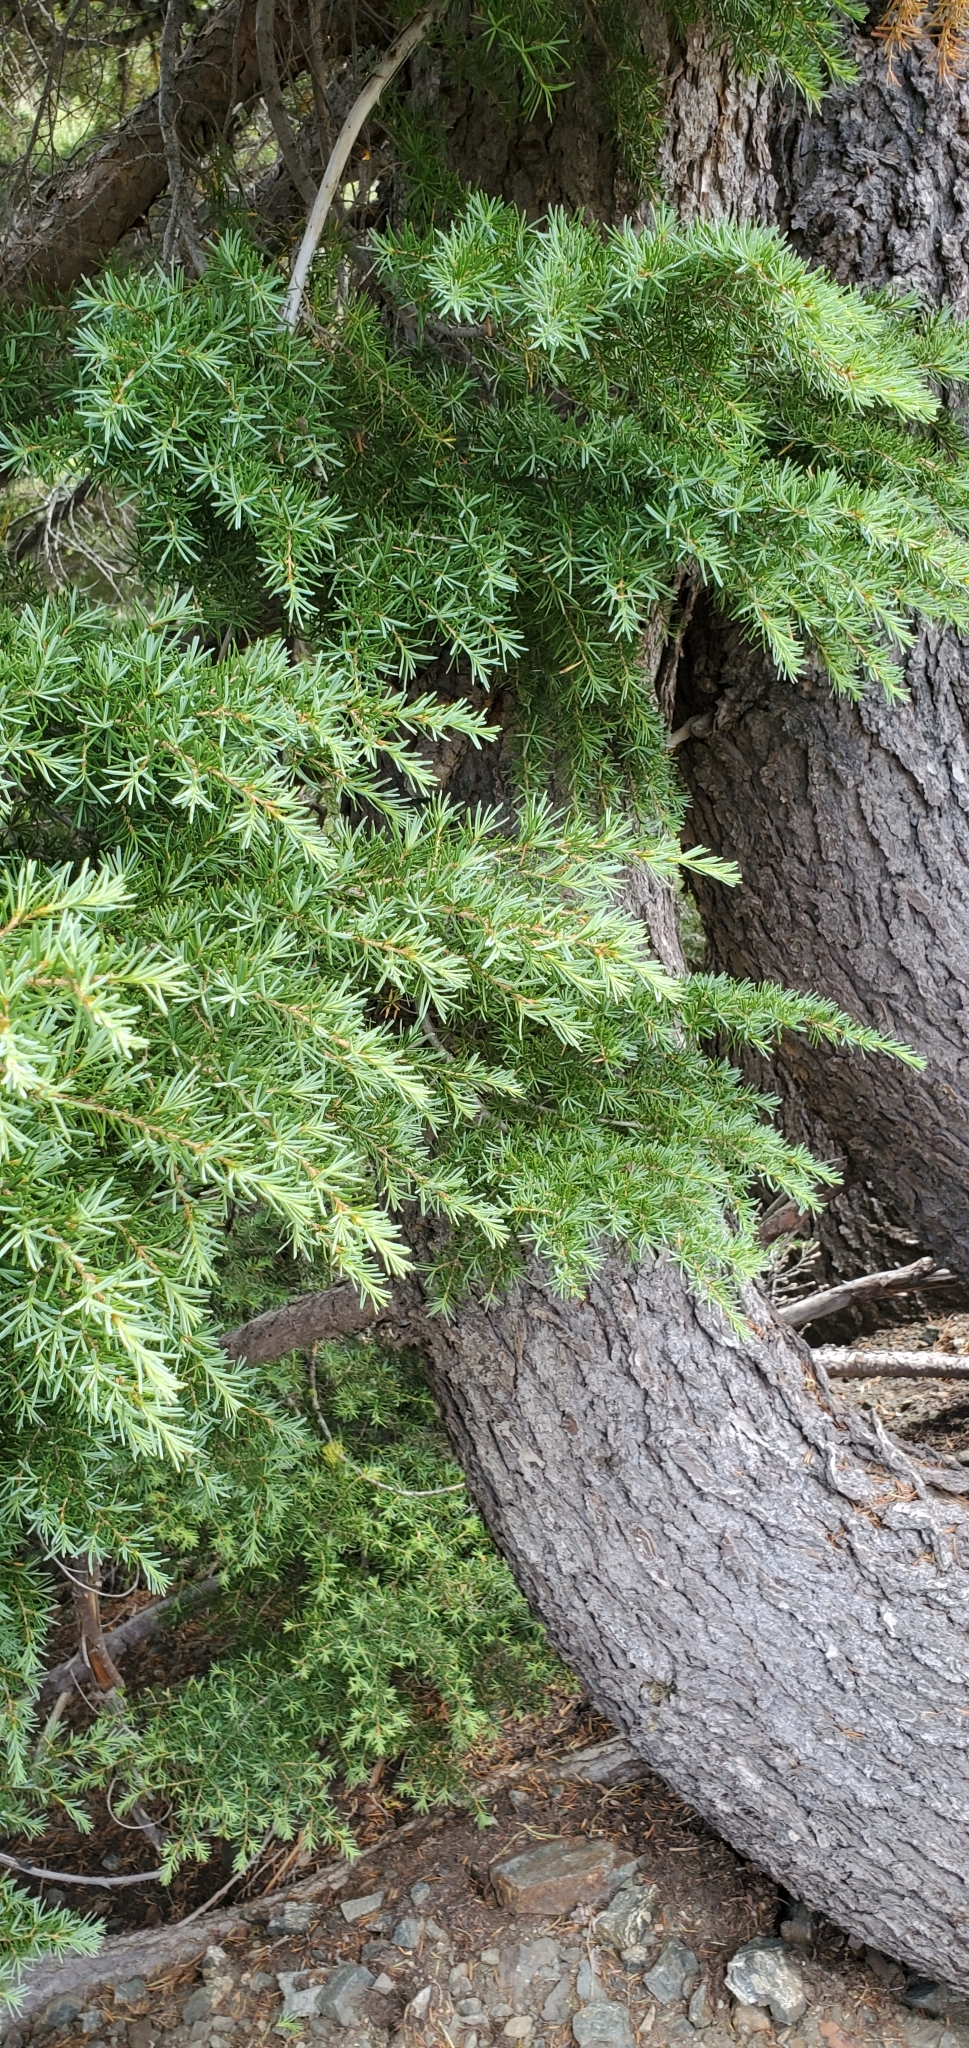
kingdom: Plantae
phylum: Tracheophyta
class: Pinopsida
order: Pinales
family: Pinaceae
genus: Tsuga
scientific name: Tsuga mertensiana
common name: Mountain hemlock
